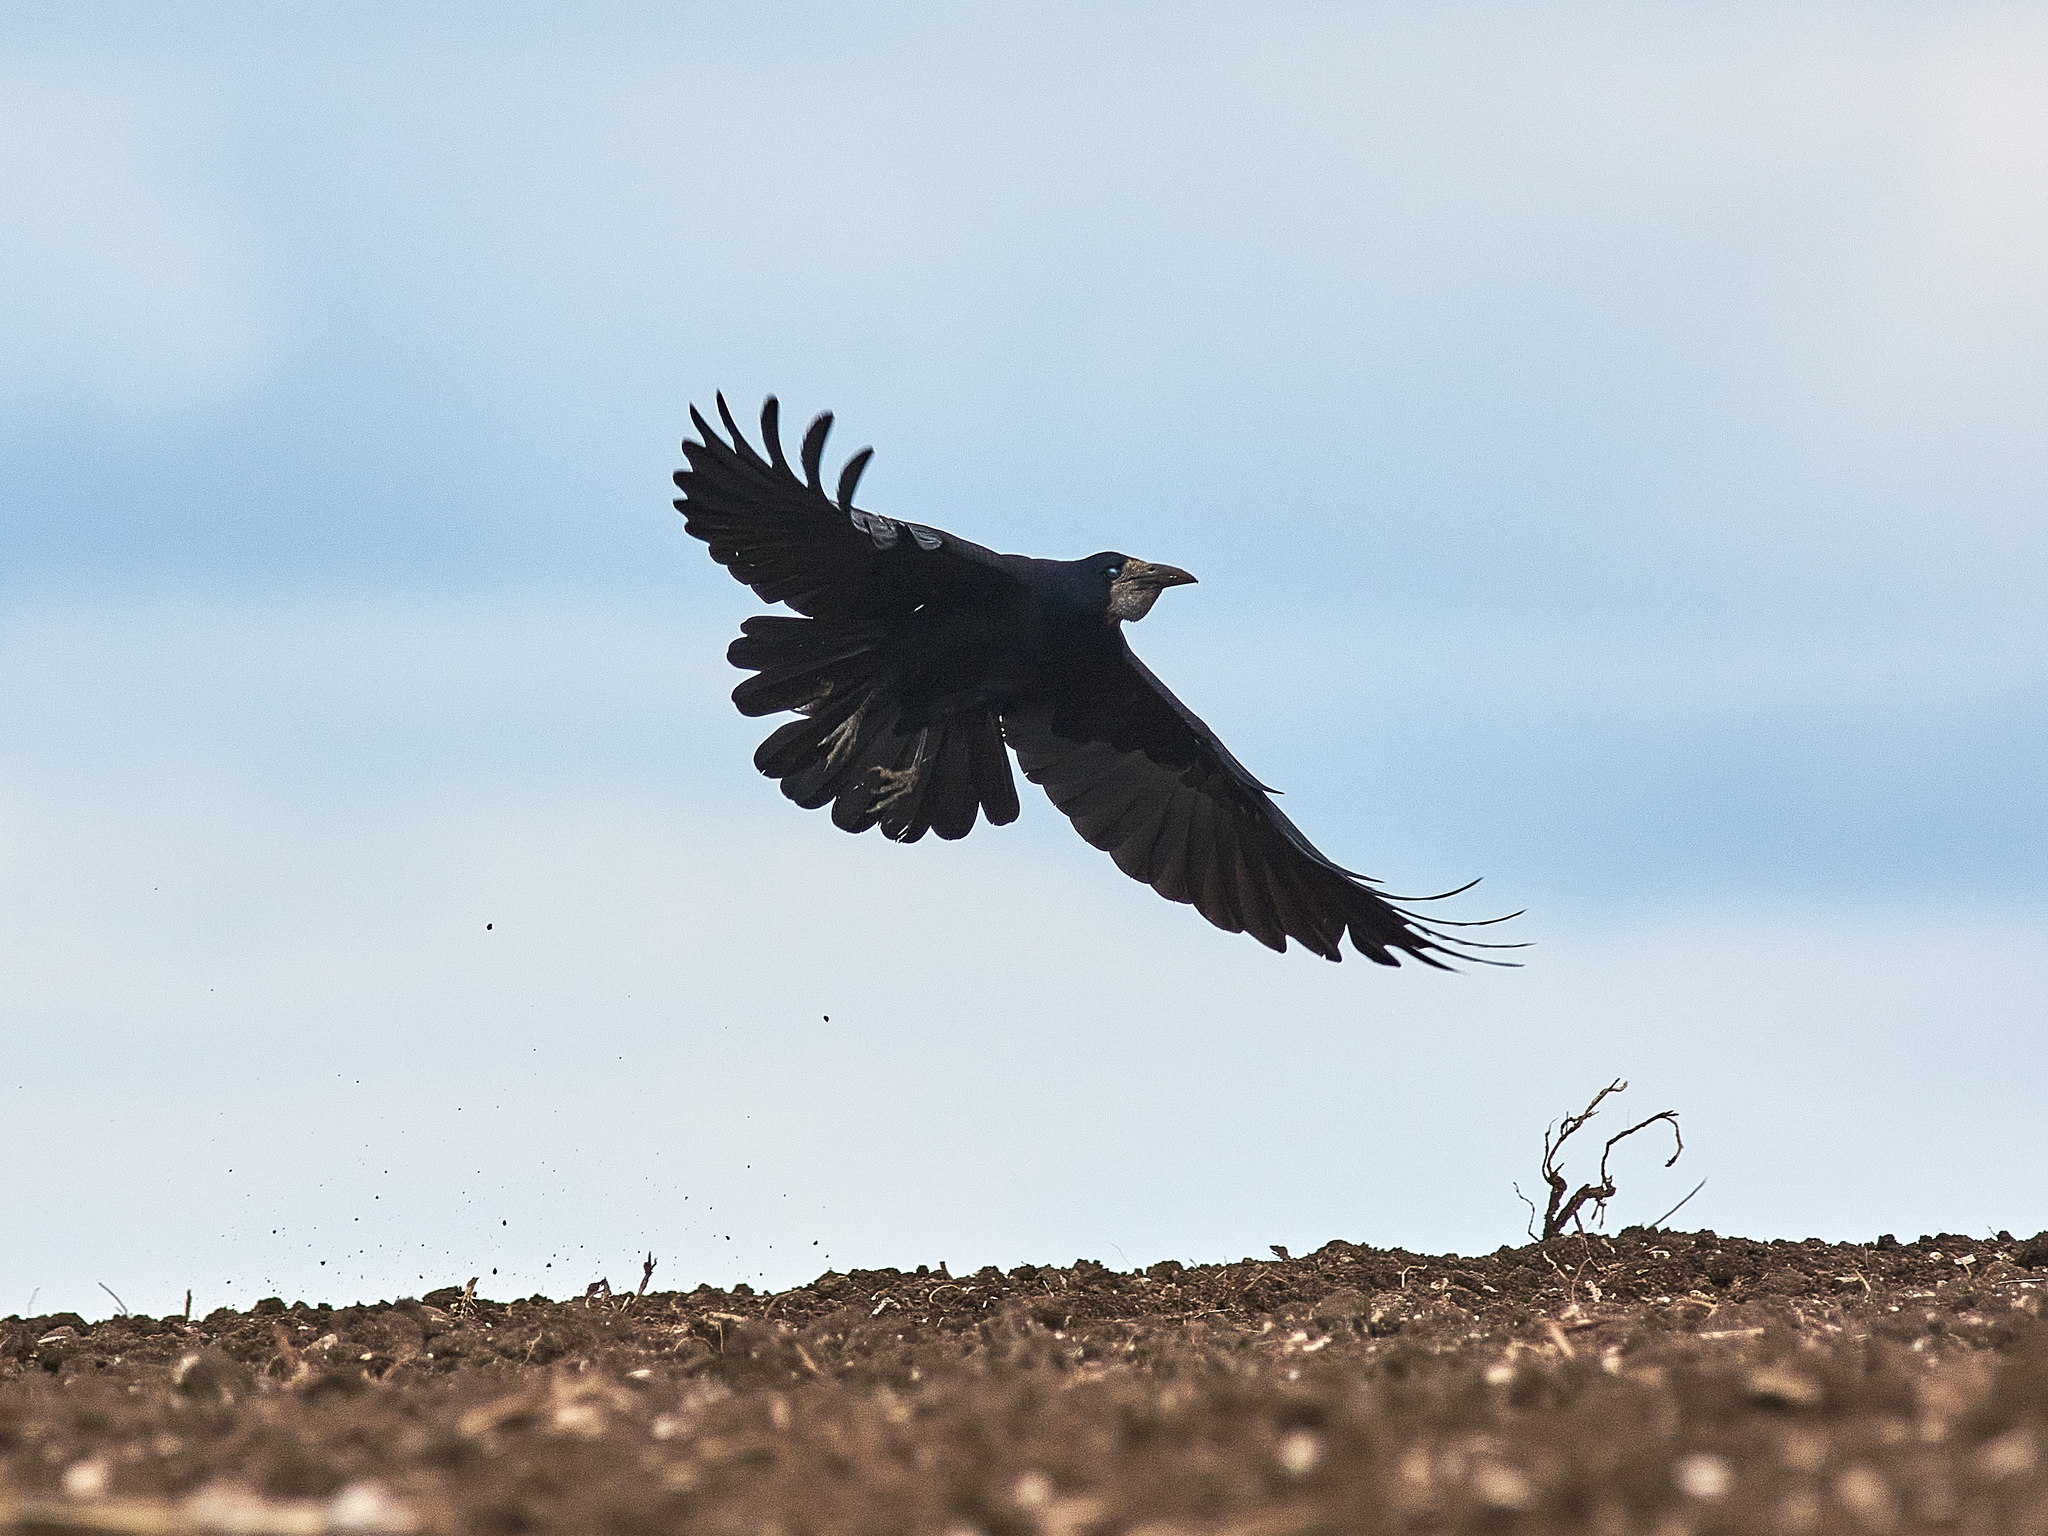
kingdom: Animalia
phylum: Chordata
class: Aves
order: Passeriformes
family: Corvidae
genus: Corvus
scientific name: Corvus frugilegus
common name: Rook
